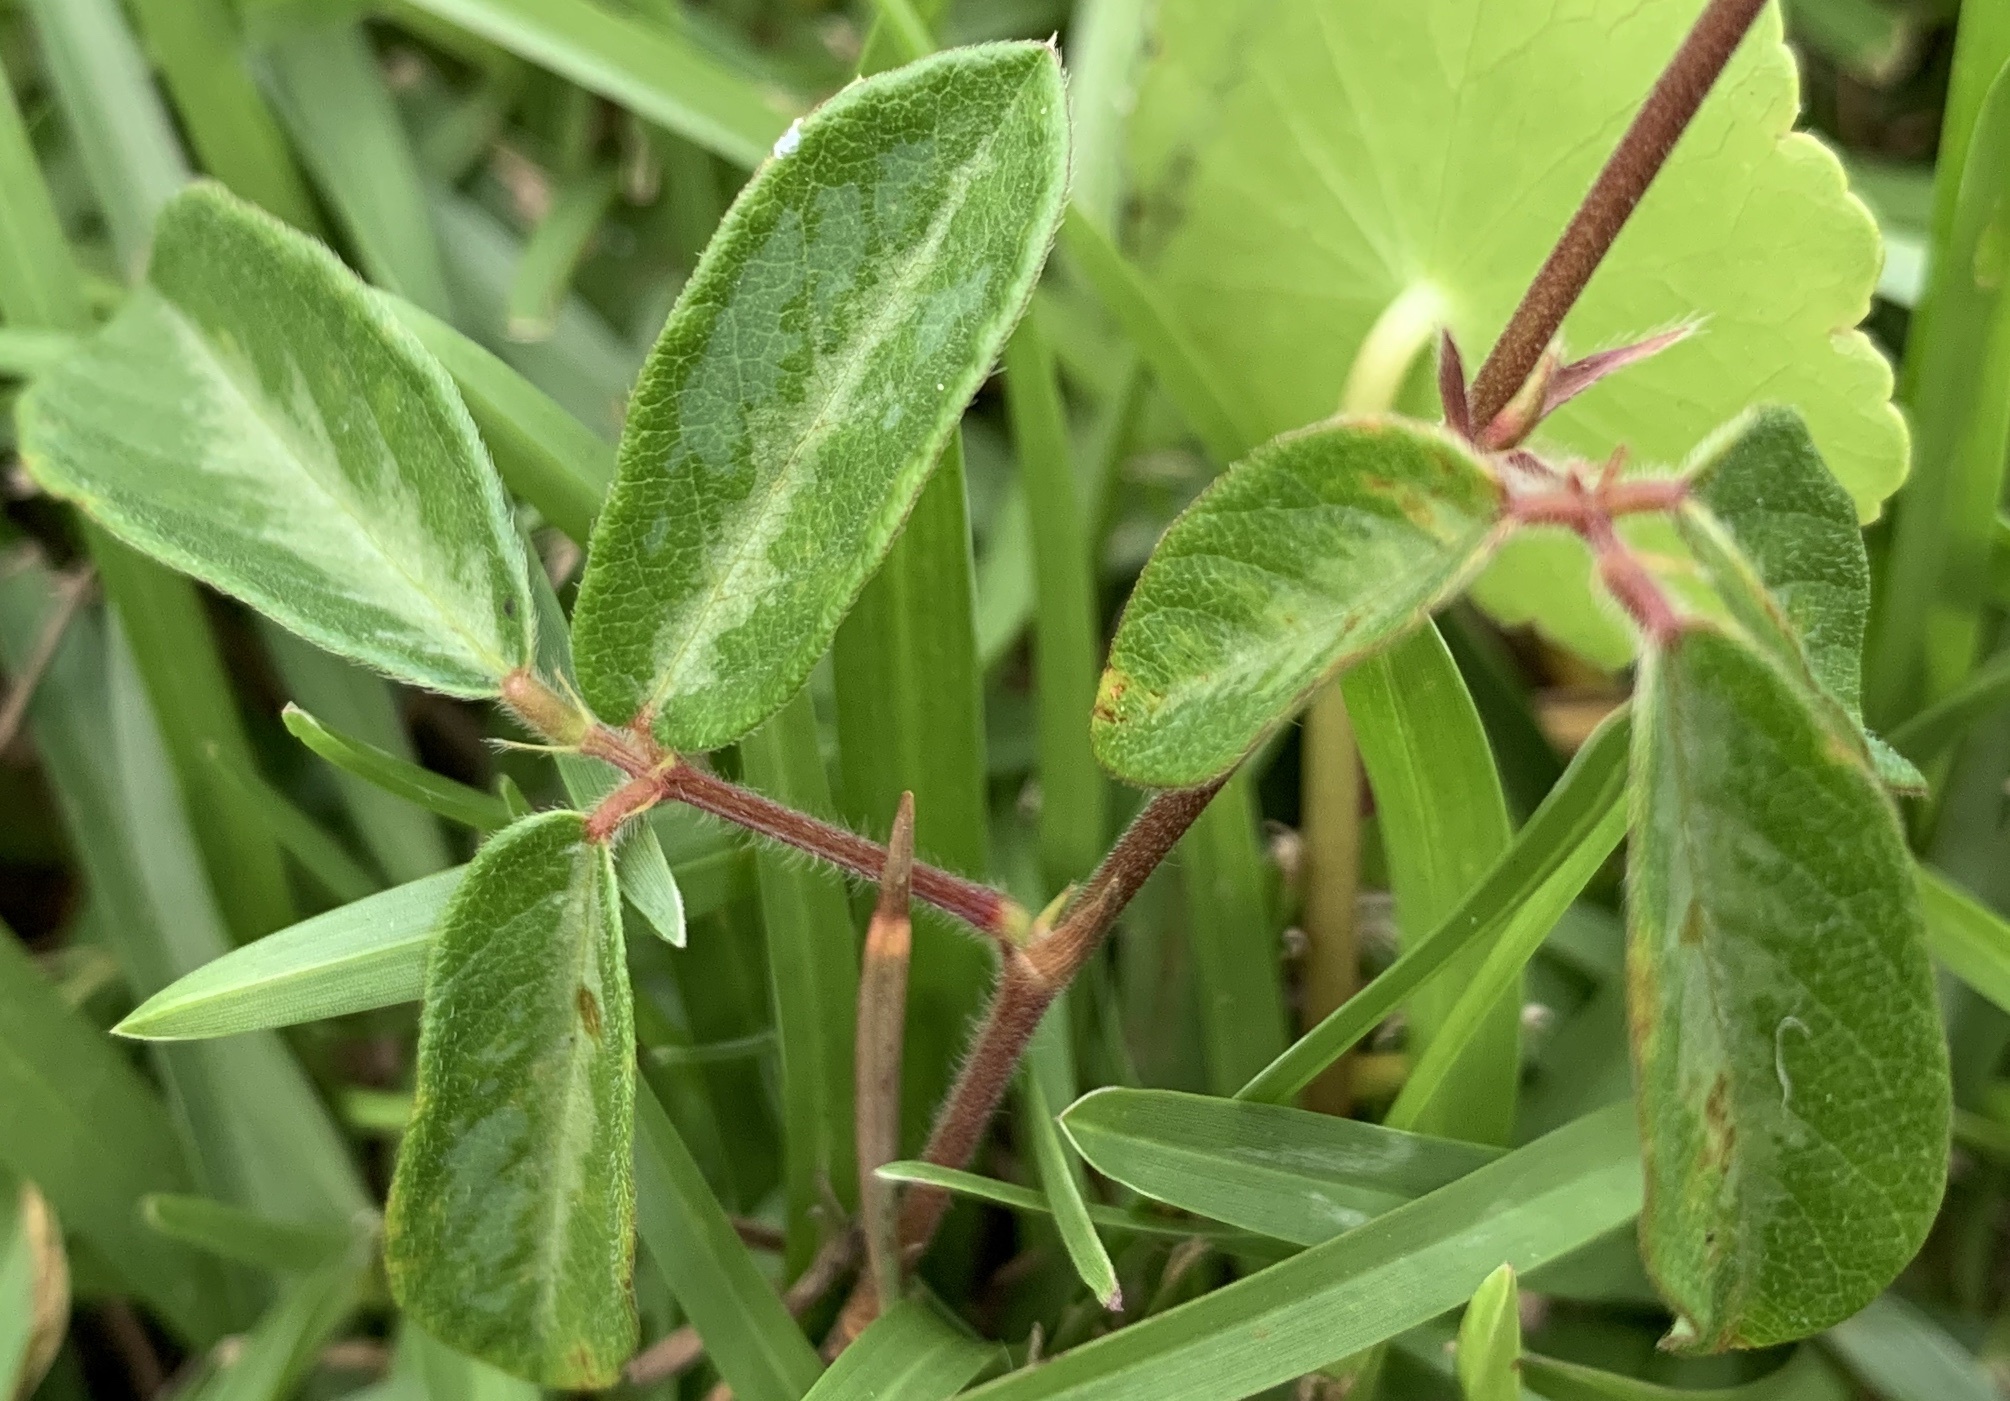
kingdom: Plantae
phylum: Tracheophyta
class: Magnoliopsida
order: Fabales
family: Fabaceae
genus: Desmodium
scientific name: Desmodium incanum
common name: Tickclover
